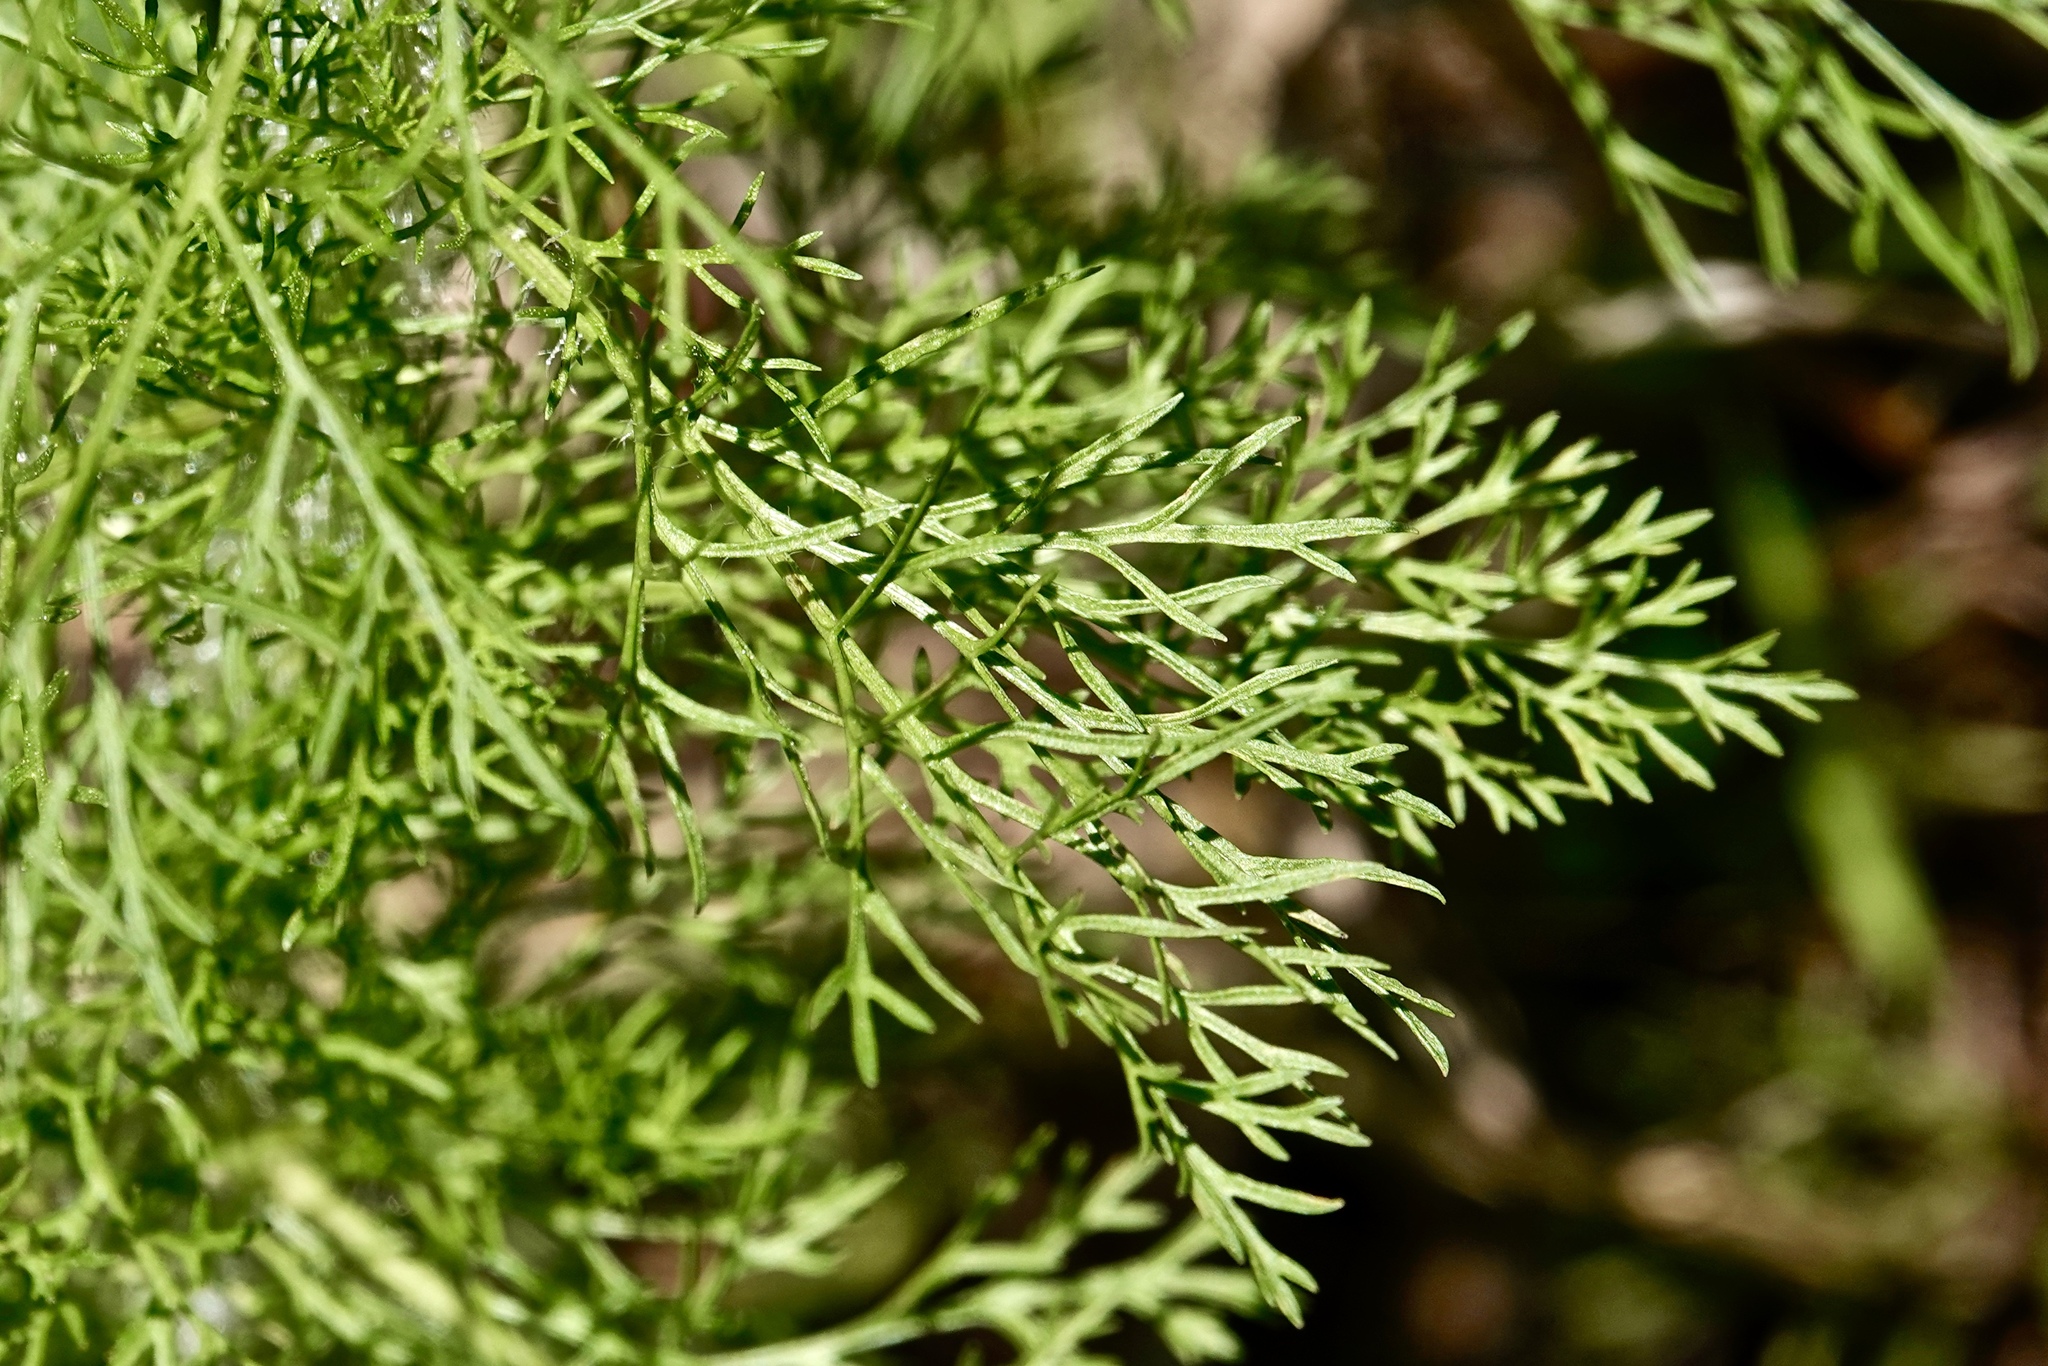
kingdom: Plantae
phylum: Tracheophyta
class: Magnoliopsida
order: Asterales
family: Asteraceae
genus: Eupatorium
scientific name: Eupatorium capillifolium
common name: Dog-fennel
